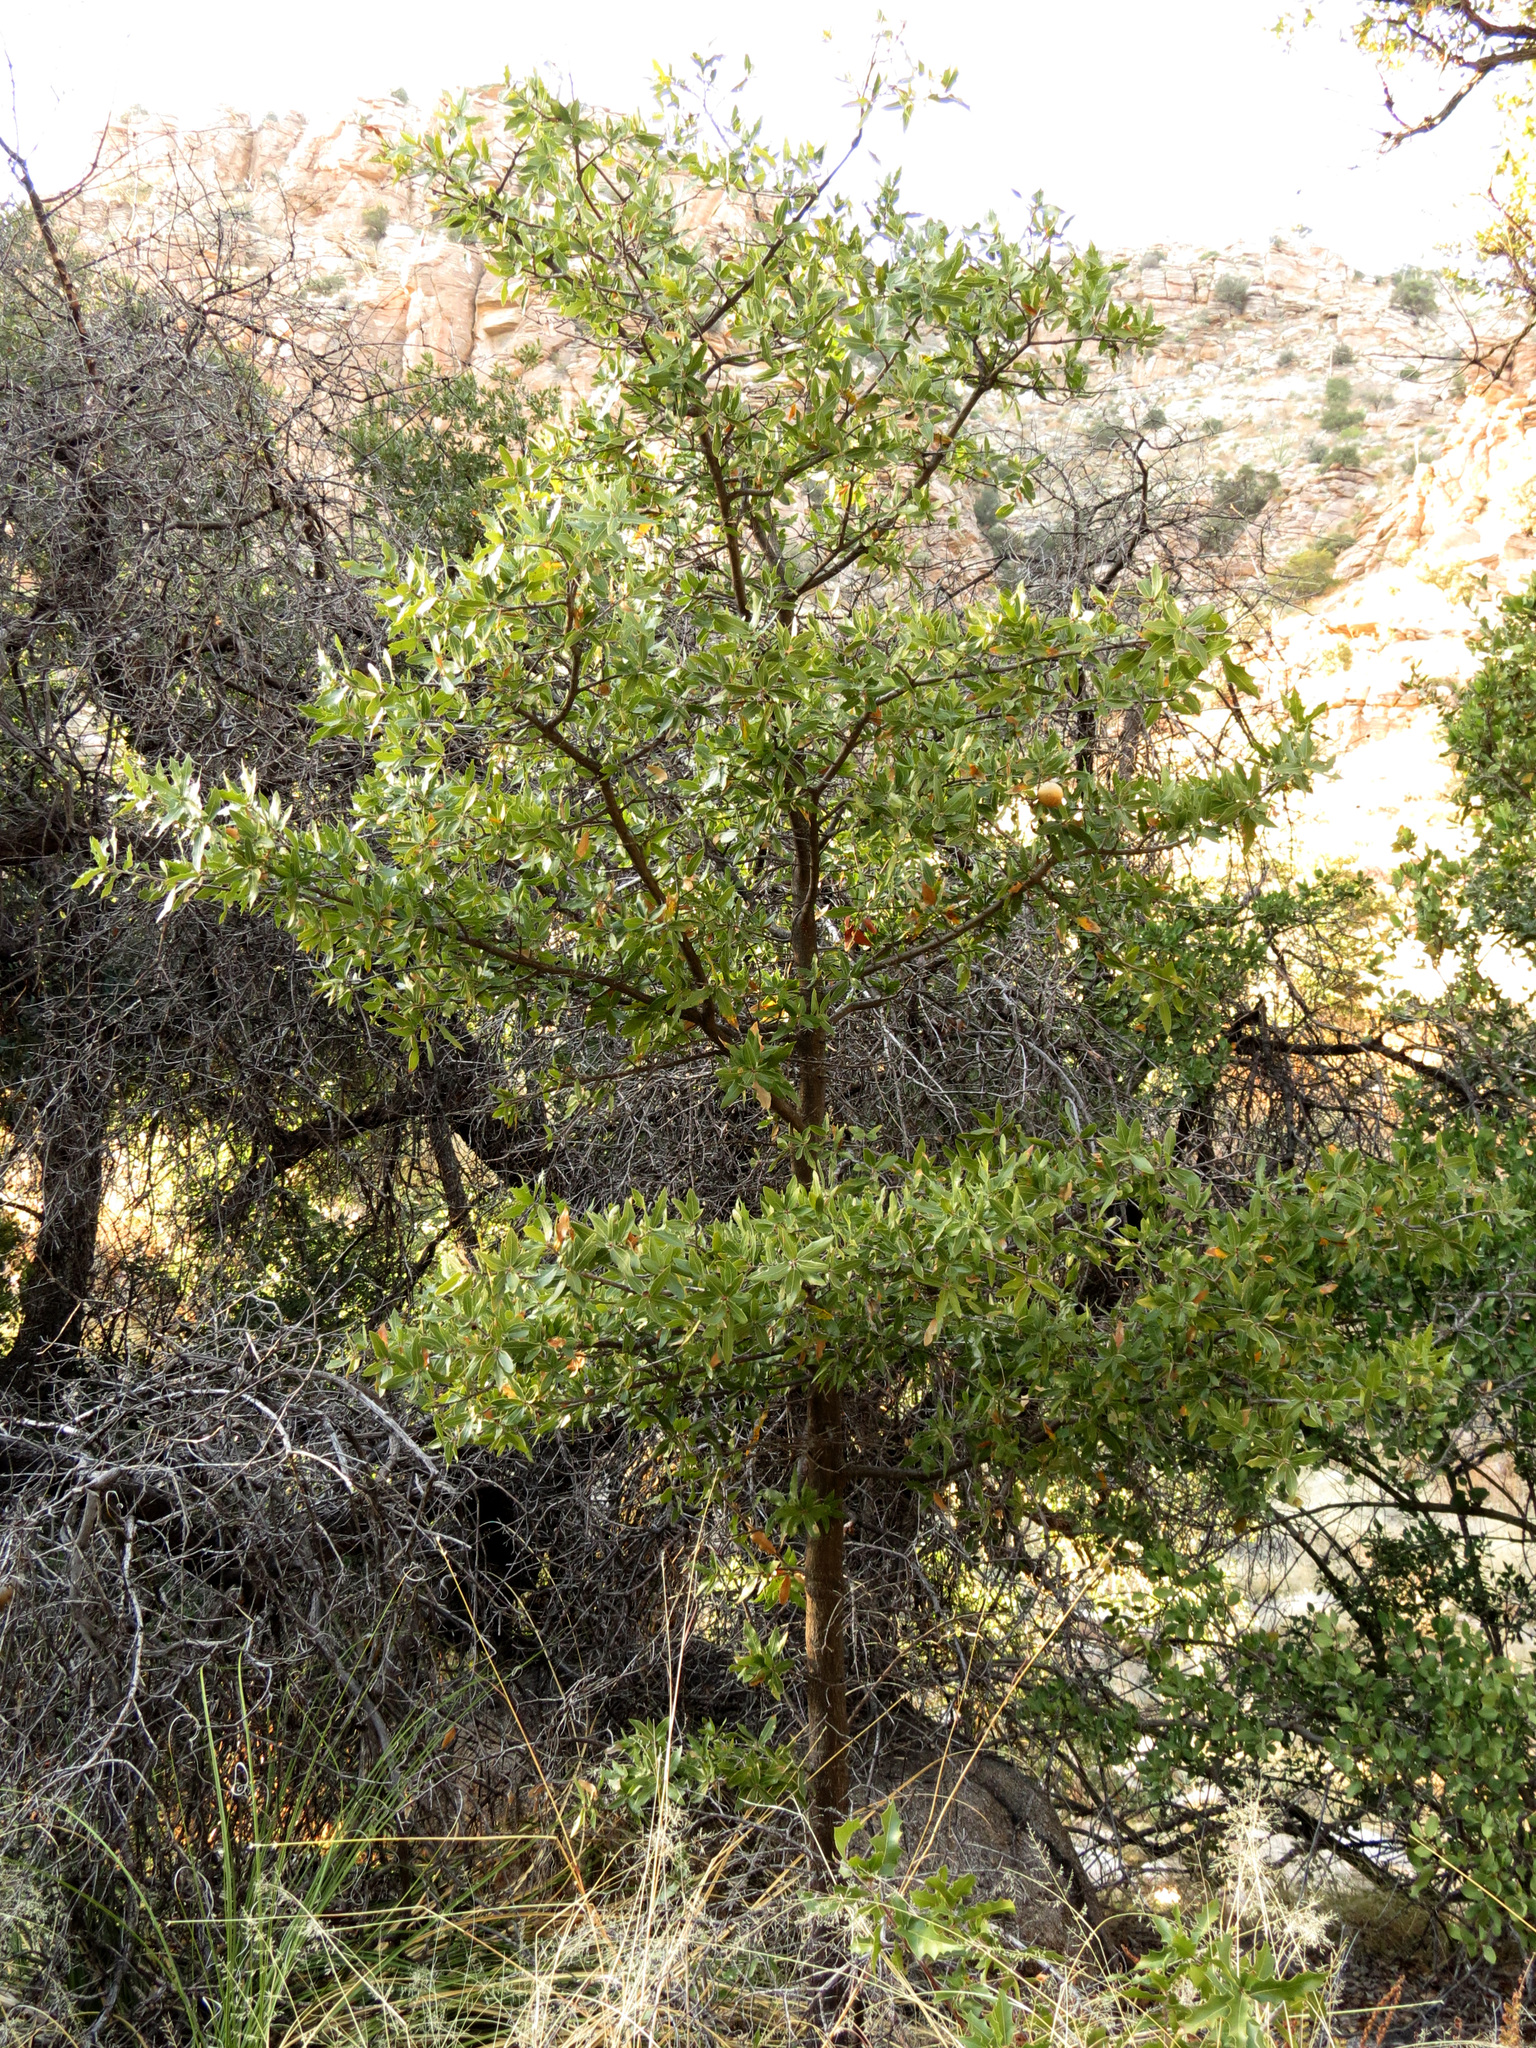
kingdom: Plantae
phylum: Tracheophyta
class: Magnoliopsida
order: Fagales
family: Fagaceae
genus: Quercus
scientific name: Quercus emoryi
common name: Emory oak
